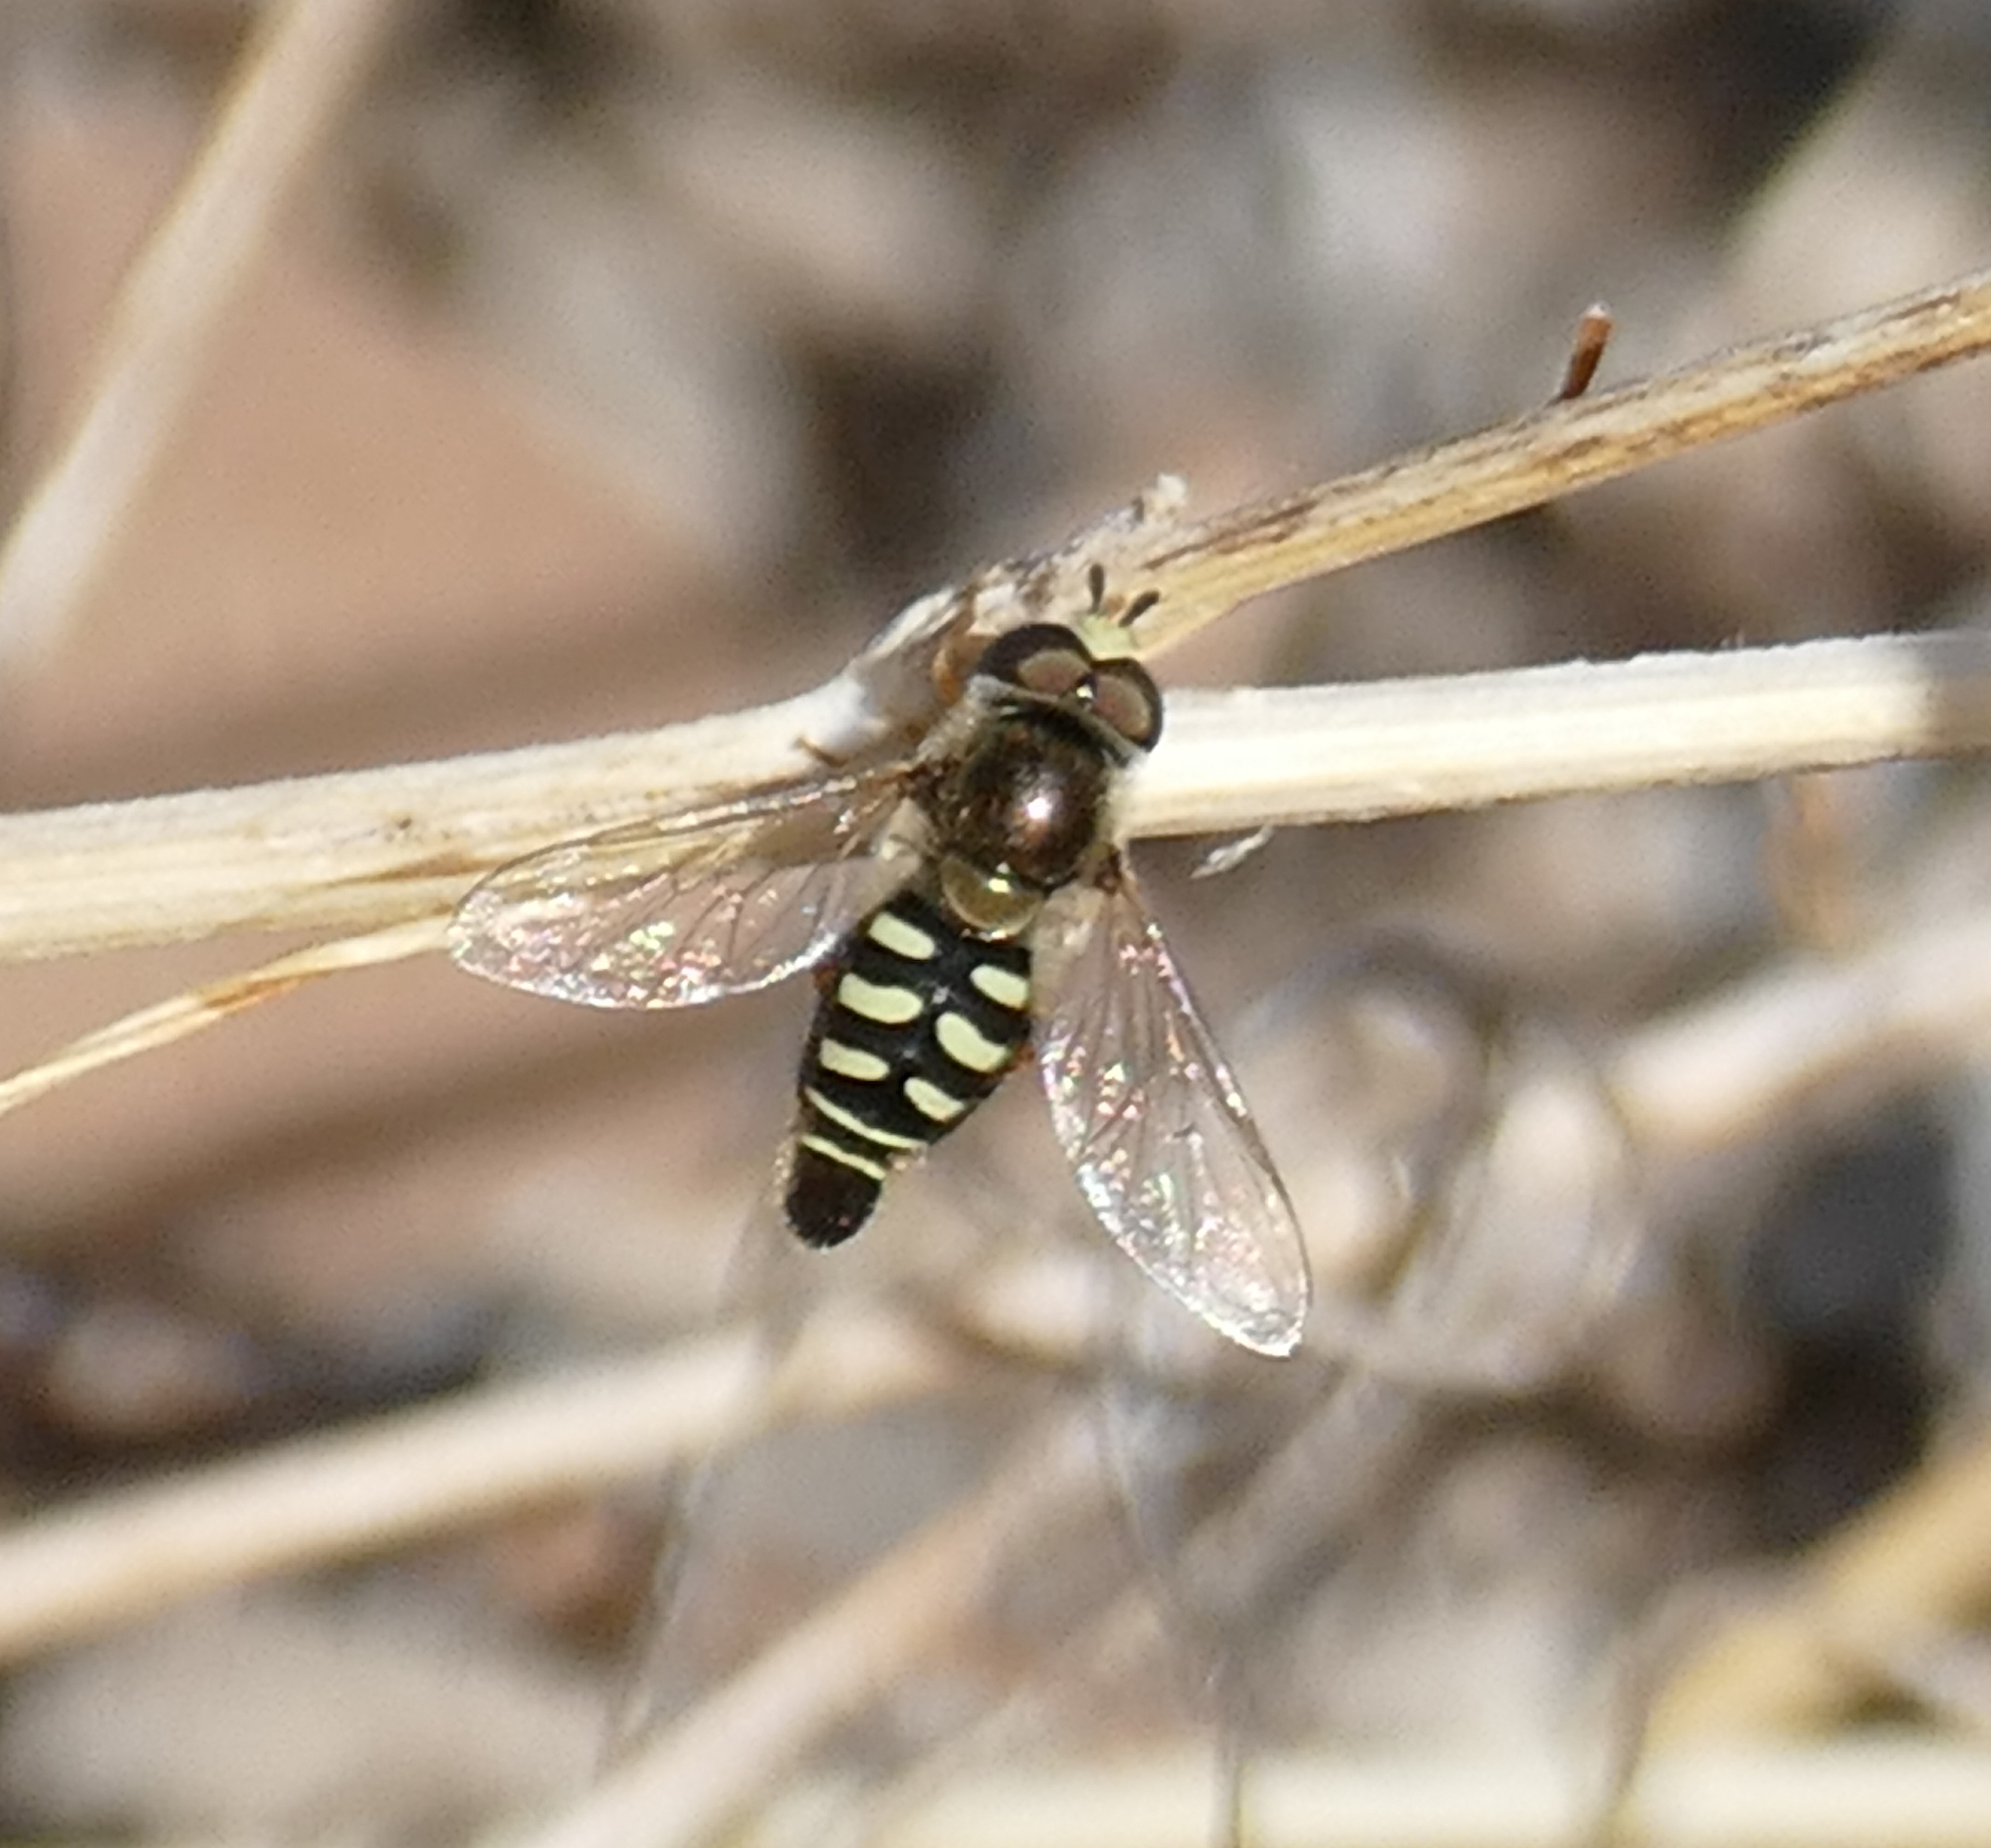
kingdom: Animalia
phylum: Arthropoda
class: Insecta
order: Diptera
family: Syrphidae
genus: Eupeodes
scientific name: Eupeodes volucris
